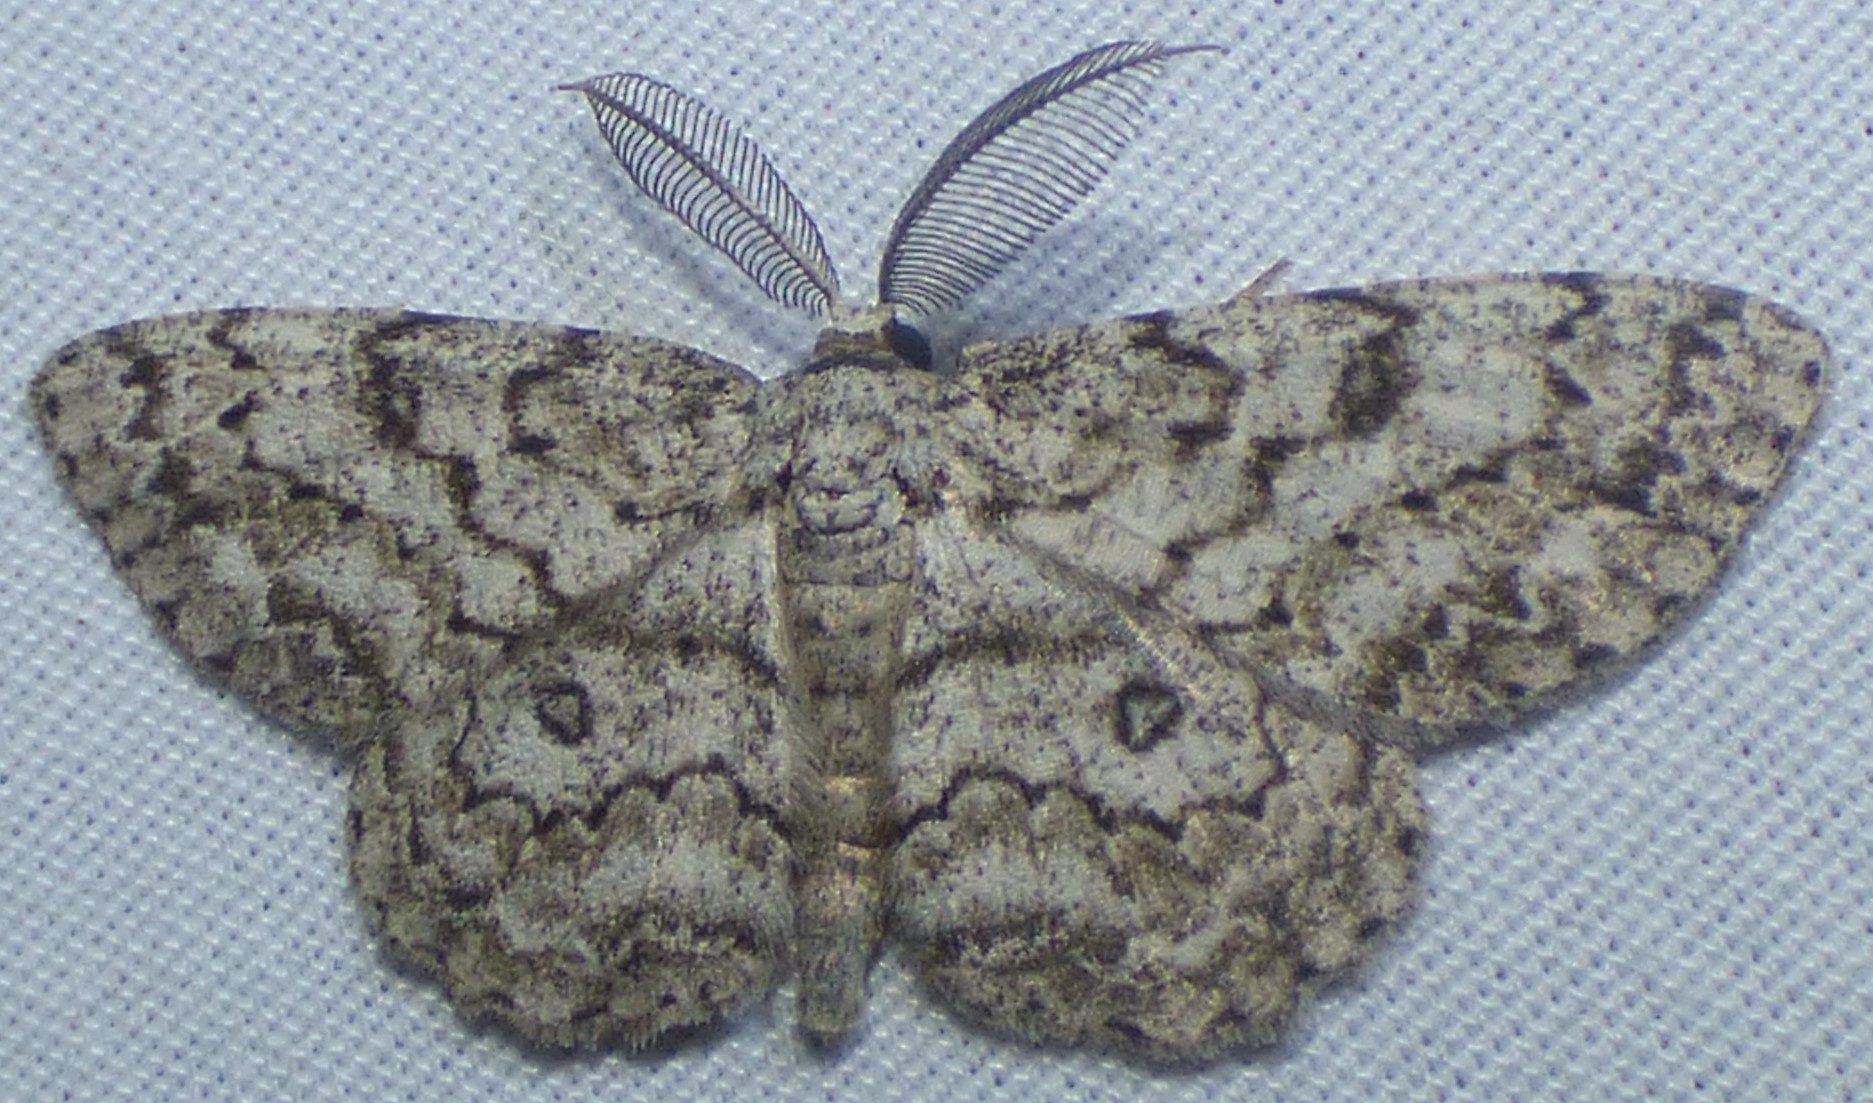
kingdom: Animalia
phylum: Arthropoda
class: Insecta
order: Lepidoptera
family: Geometridae
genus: Hypomecis
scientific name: Hypomecis umbrosaria
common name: Umber moth
